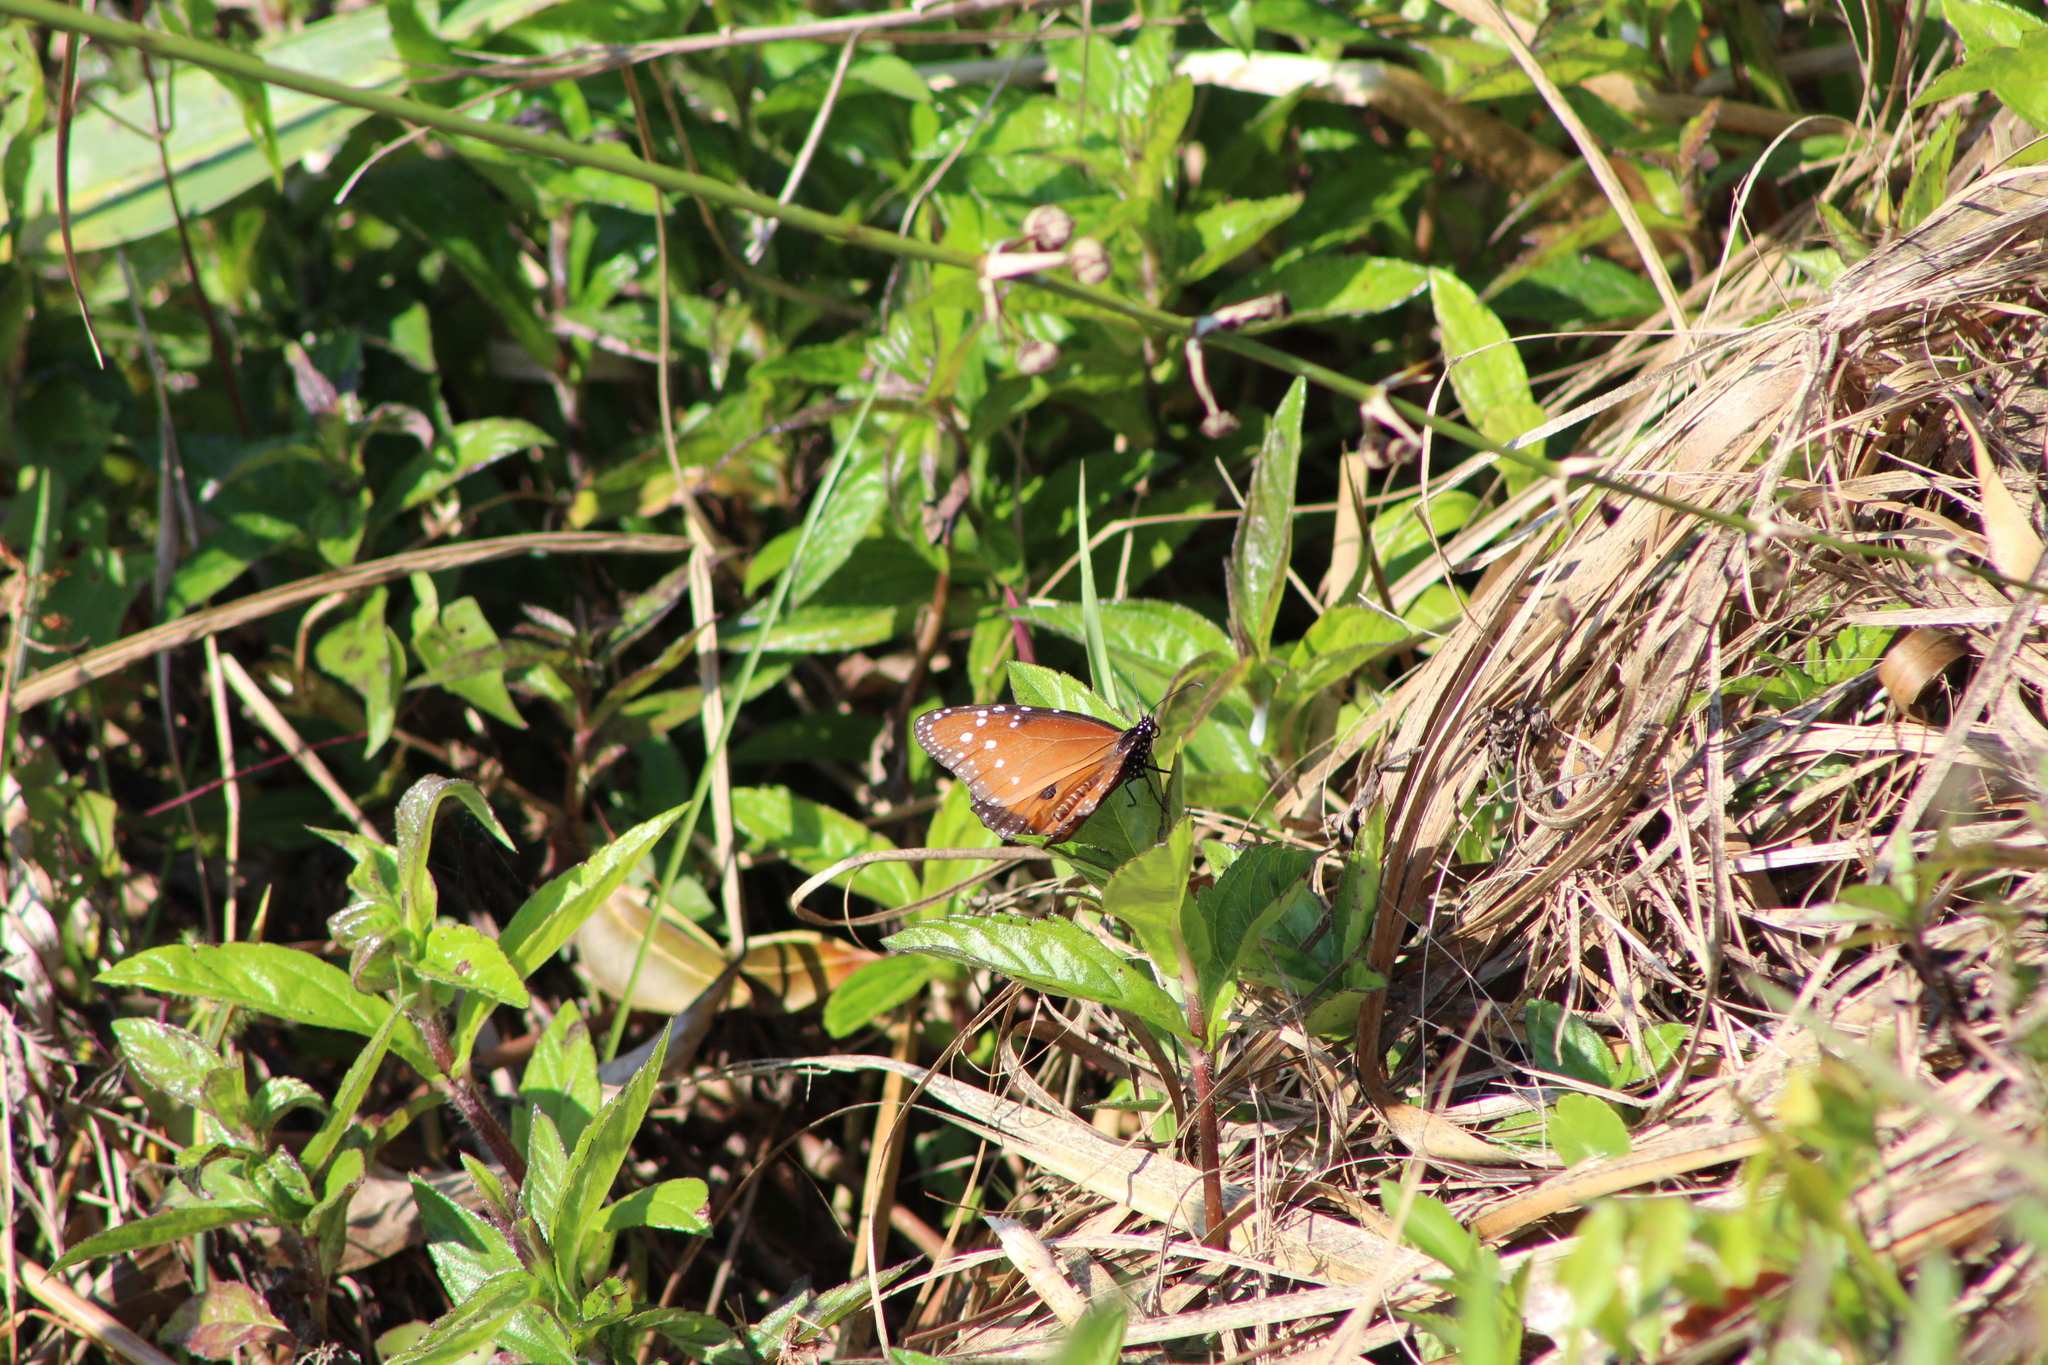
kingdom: Animalia
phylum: Arthropoda
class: Insecta
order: Lepidoptera
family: Nymphalidae
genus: Danaus
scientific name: Danaus gilippus
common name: Queen
